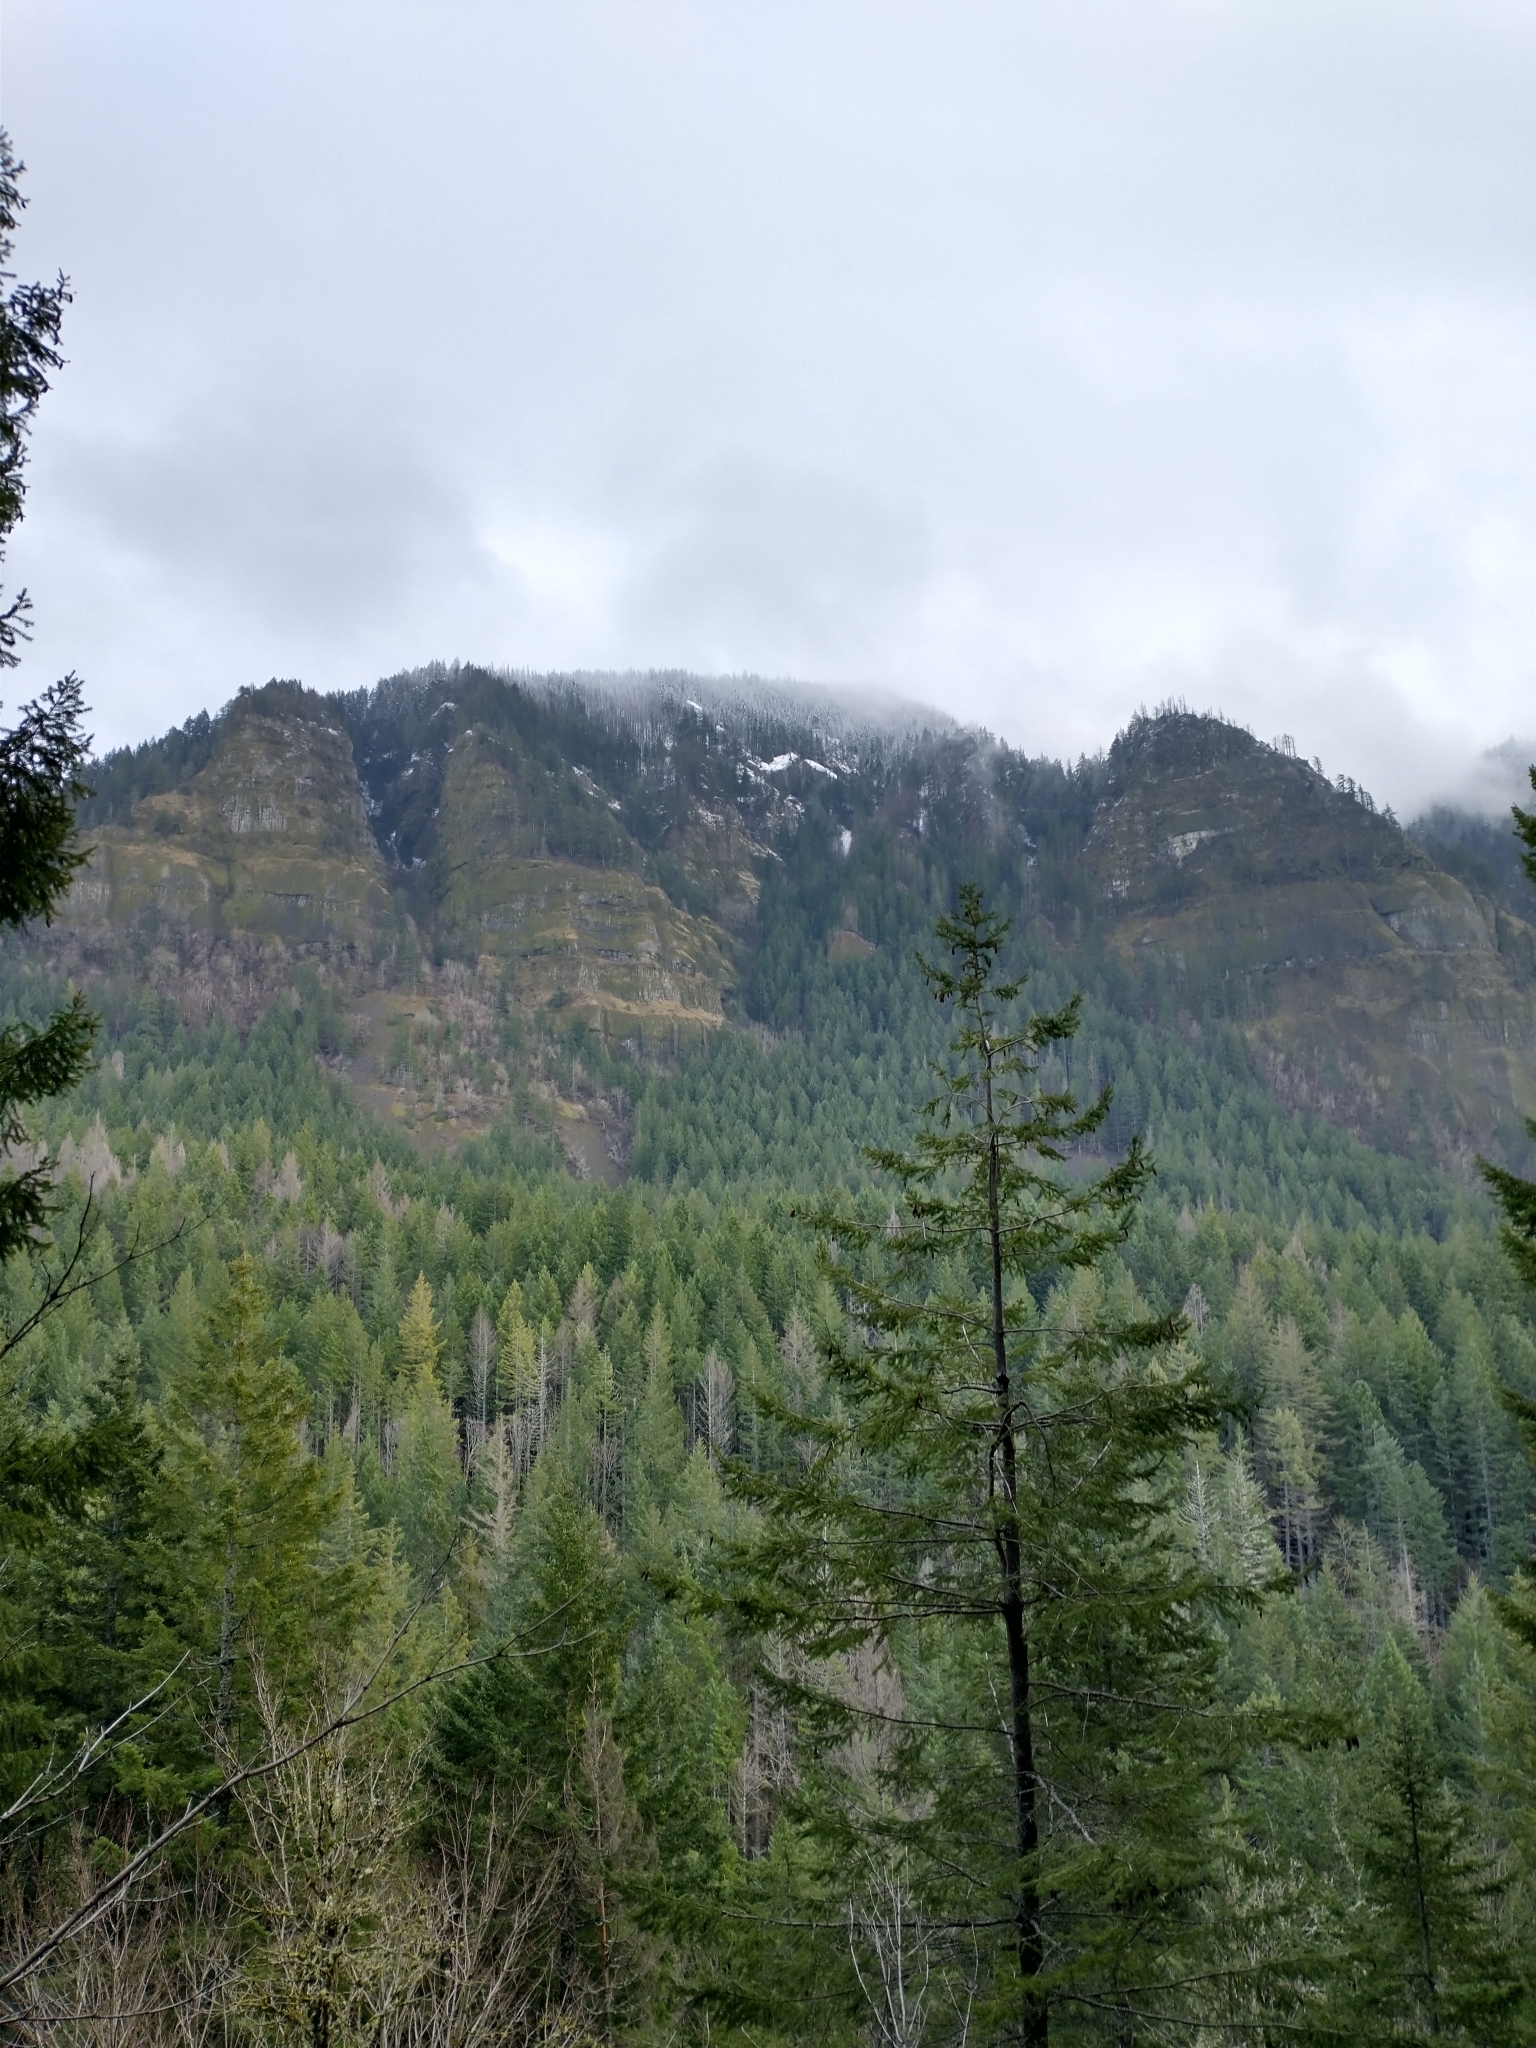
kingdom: Plantae
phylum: Tracheophyta
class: Pinopsida
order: Pinales
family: Pinaceae
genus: Pseudotsuga
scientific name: Pseudotsuga menziesii
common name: Douglas fir
